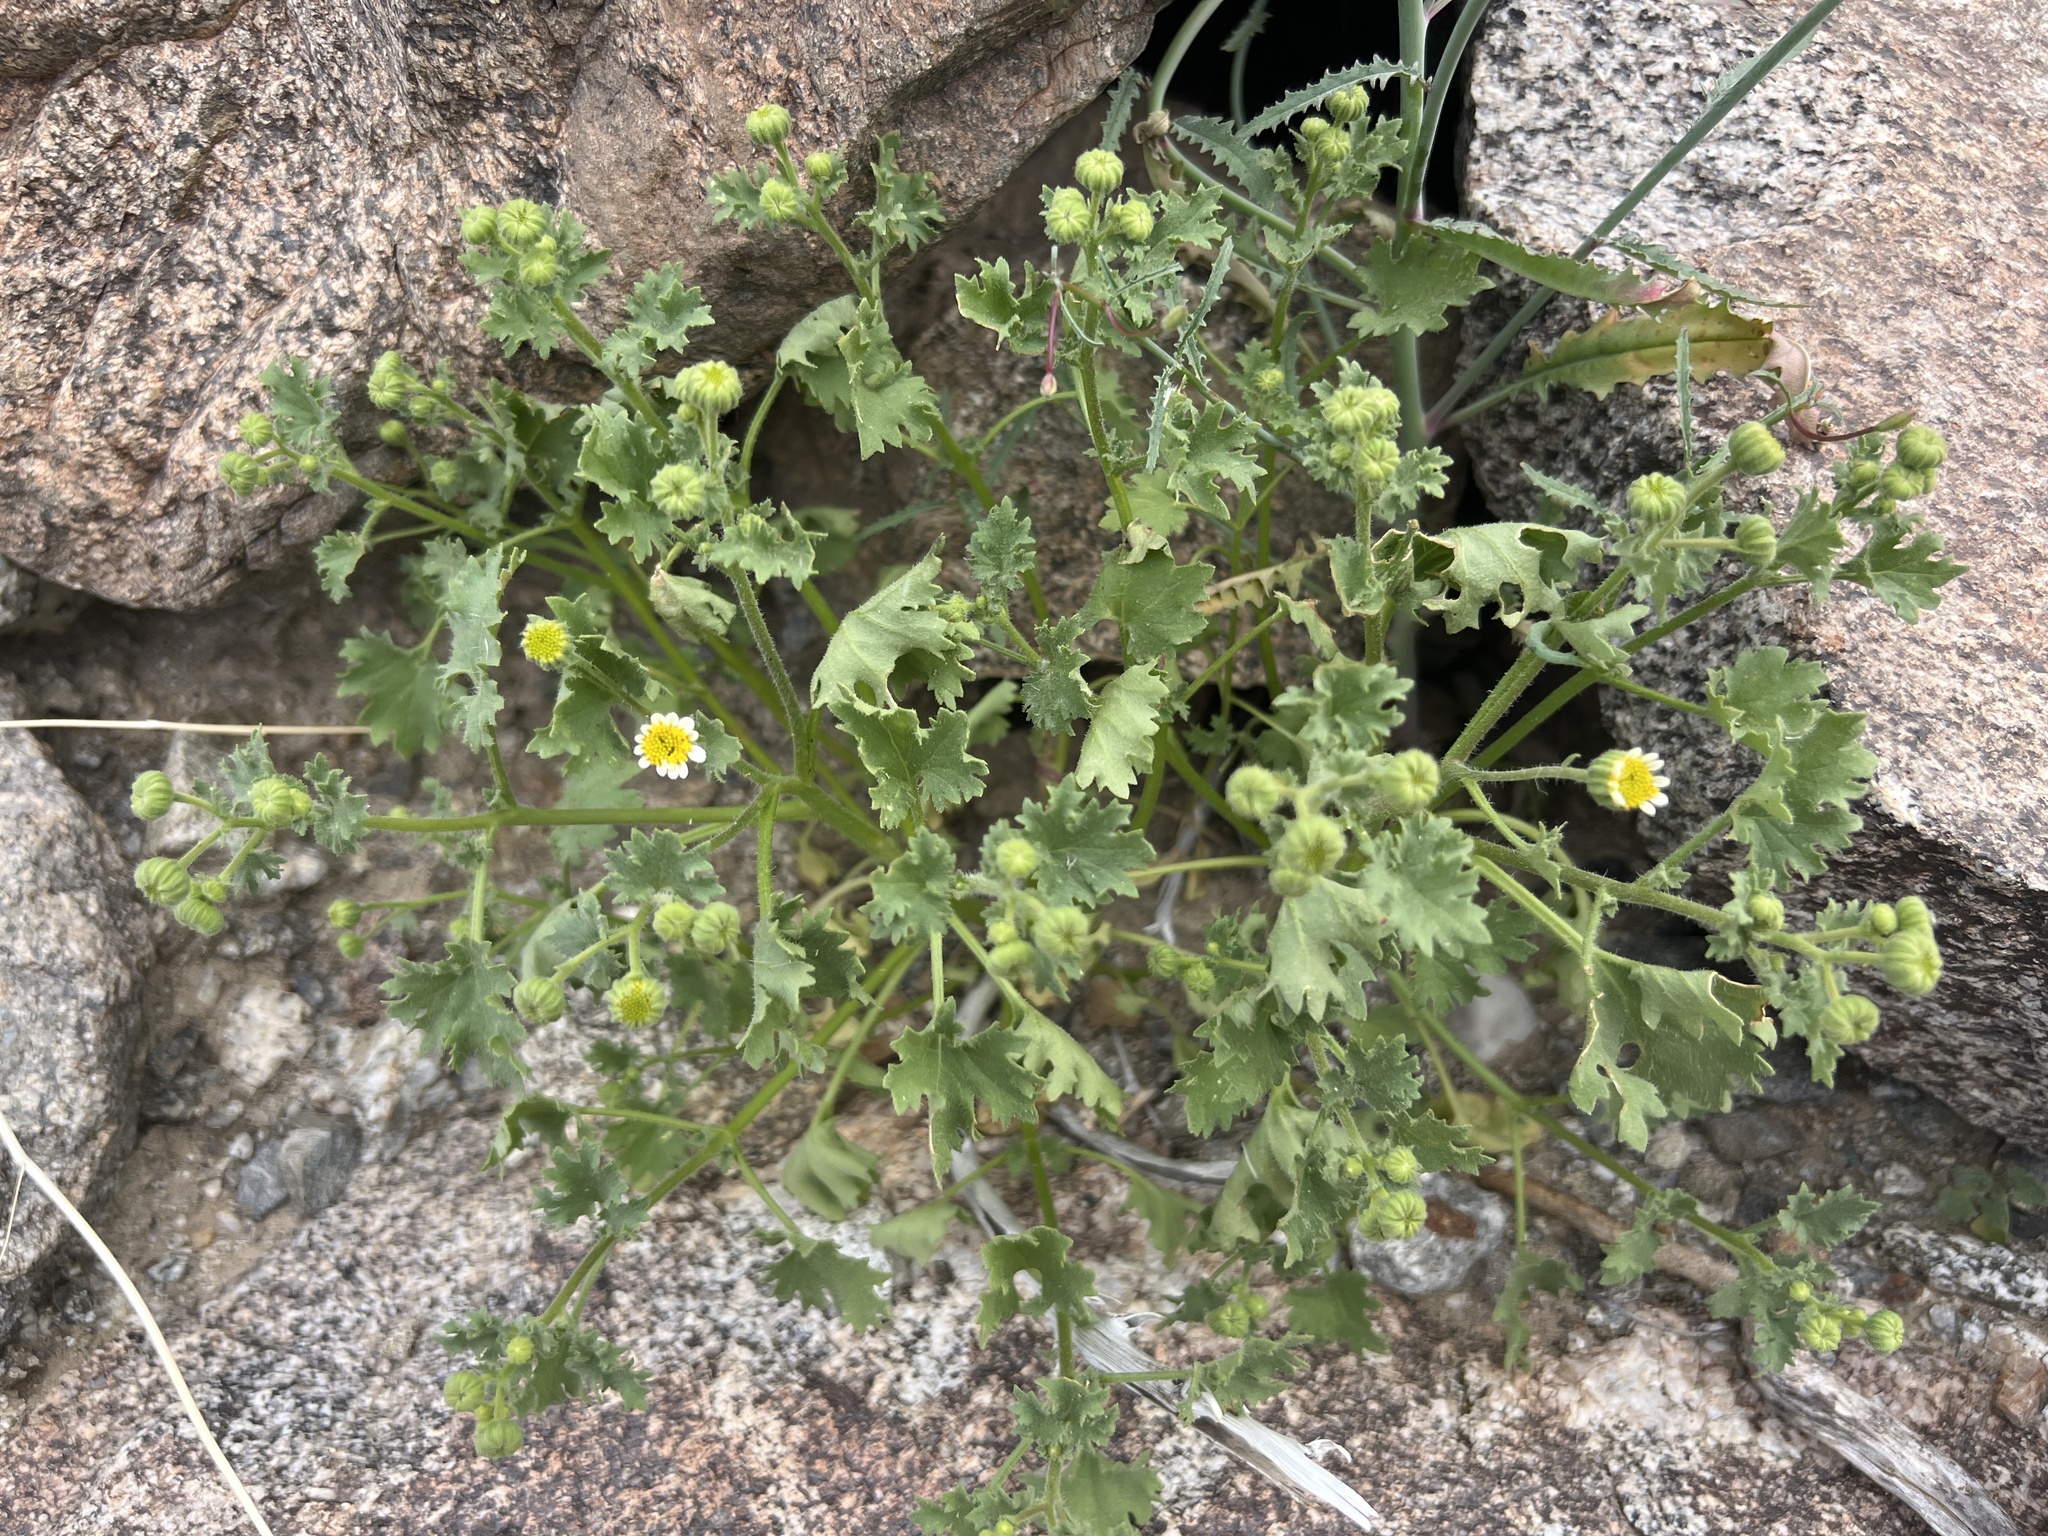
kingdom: Plantae
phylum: Tracheophyta
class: Magnoliopsida
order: Asterales
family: Asteraceae
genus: Laphamia
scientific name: Laphamia emoryi
